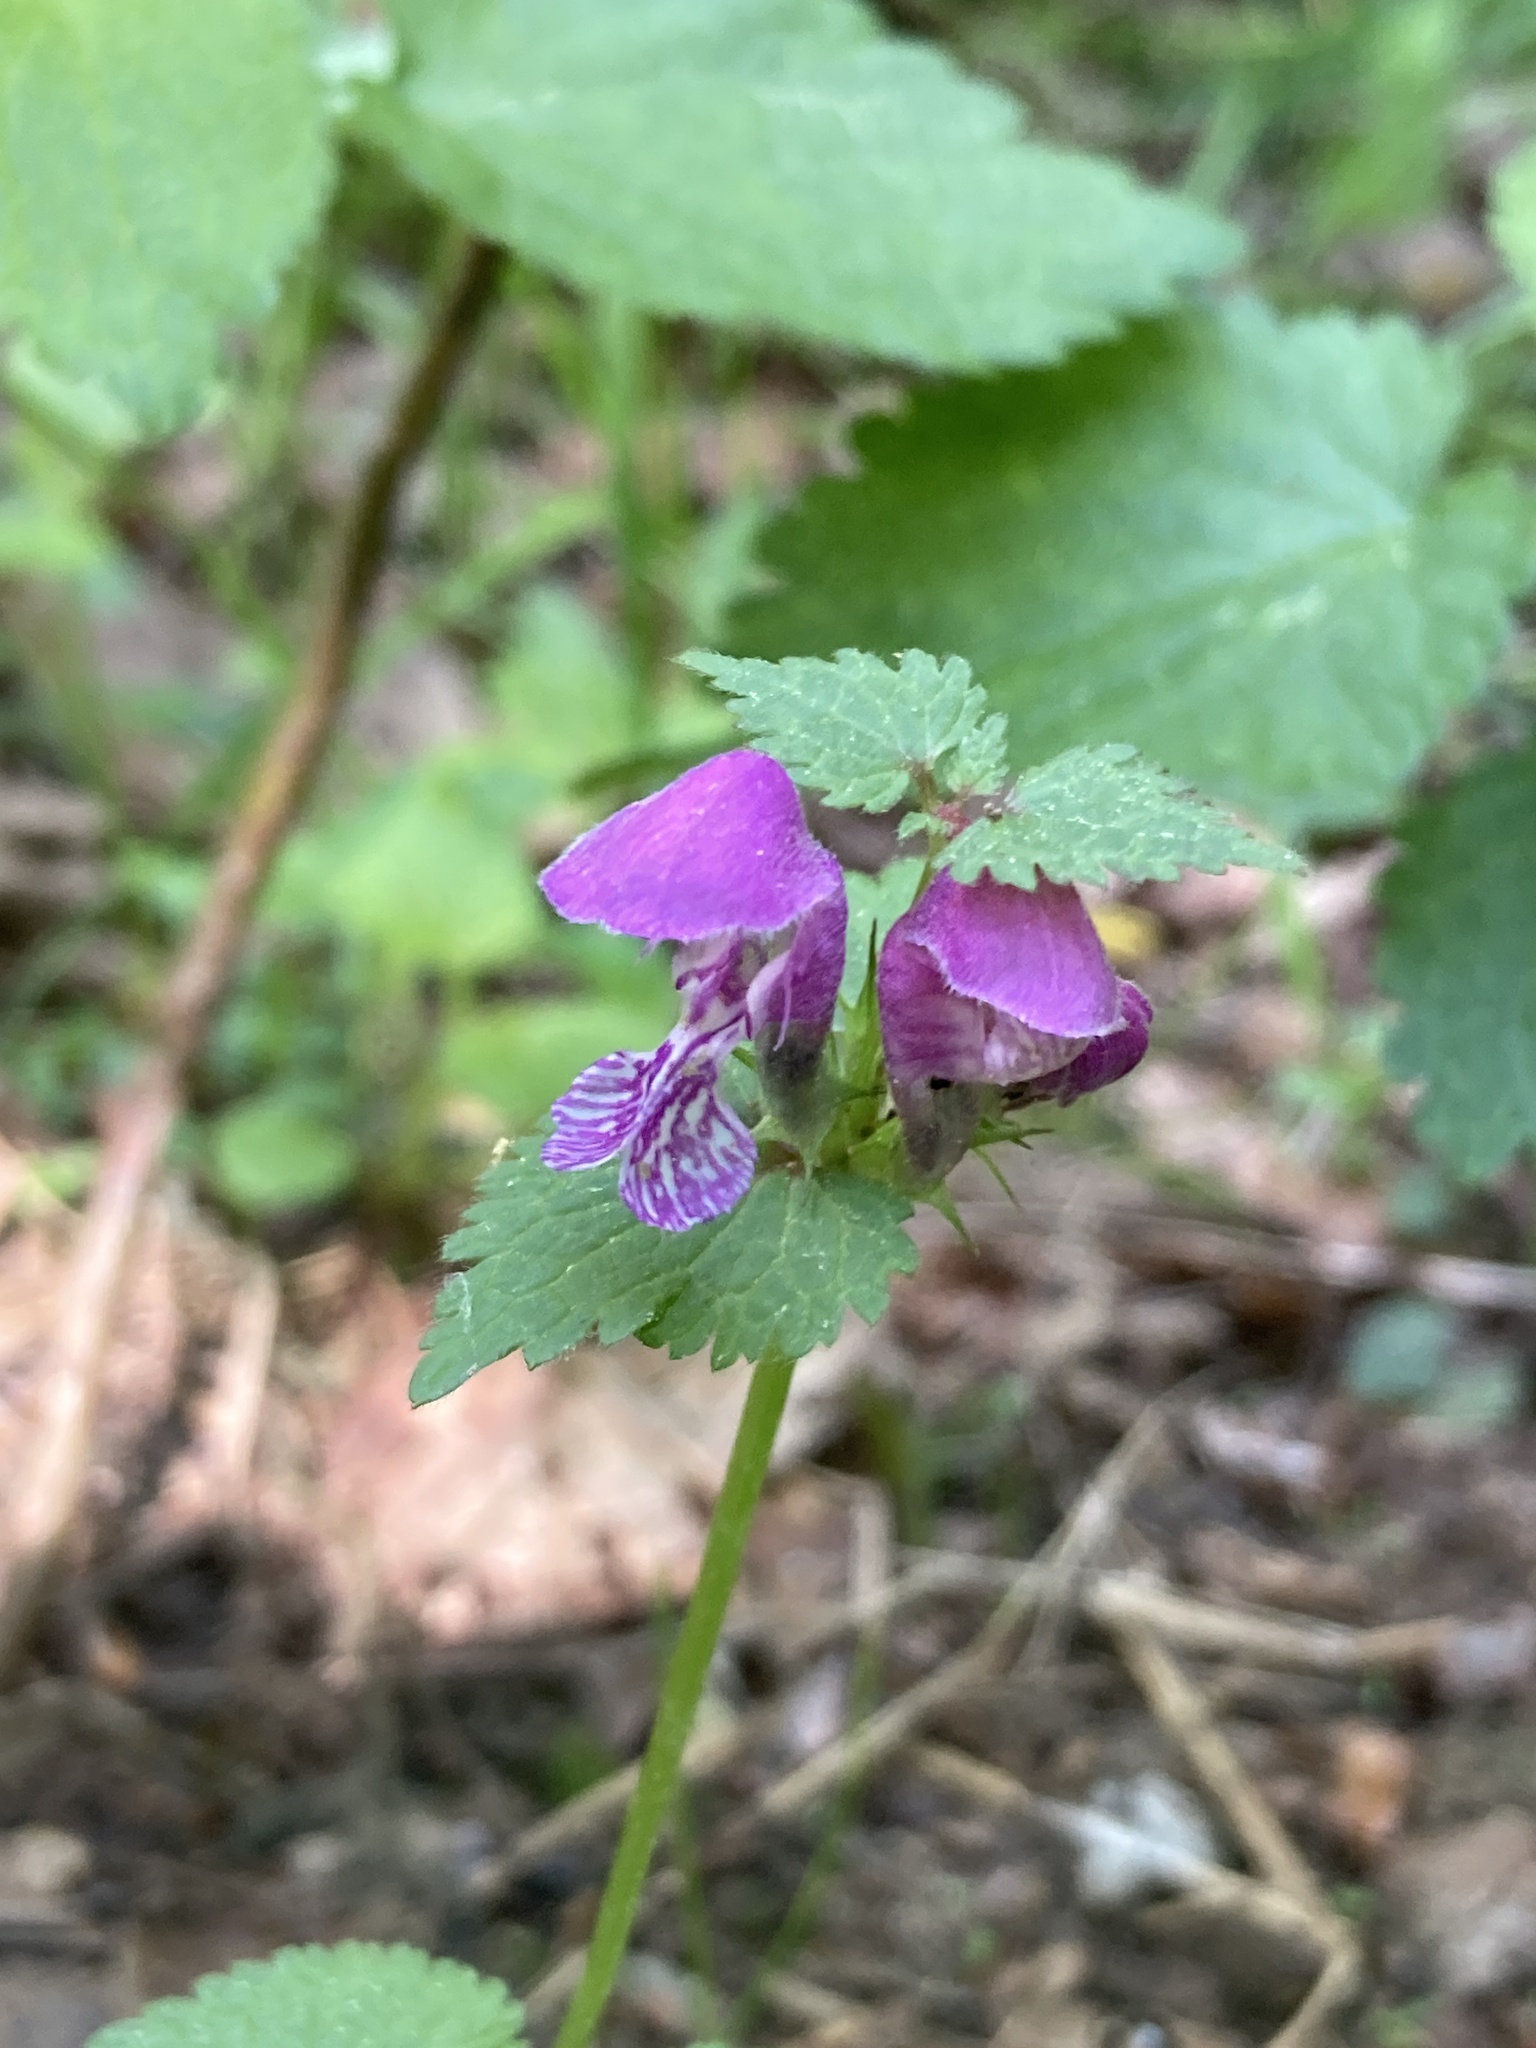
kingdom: Plantae
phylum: Tracheophyta
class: Magnoliopsida
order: Lamiales
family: Lamiaceae
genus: Lamium
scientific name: Lamium maculatum
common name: Spotted dead-nettle
